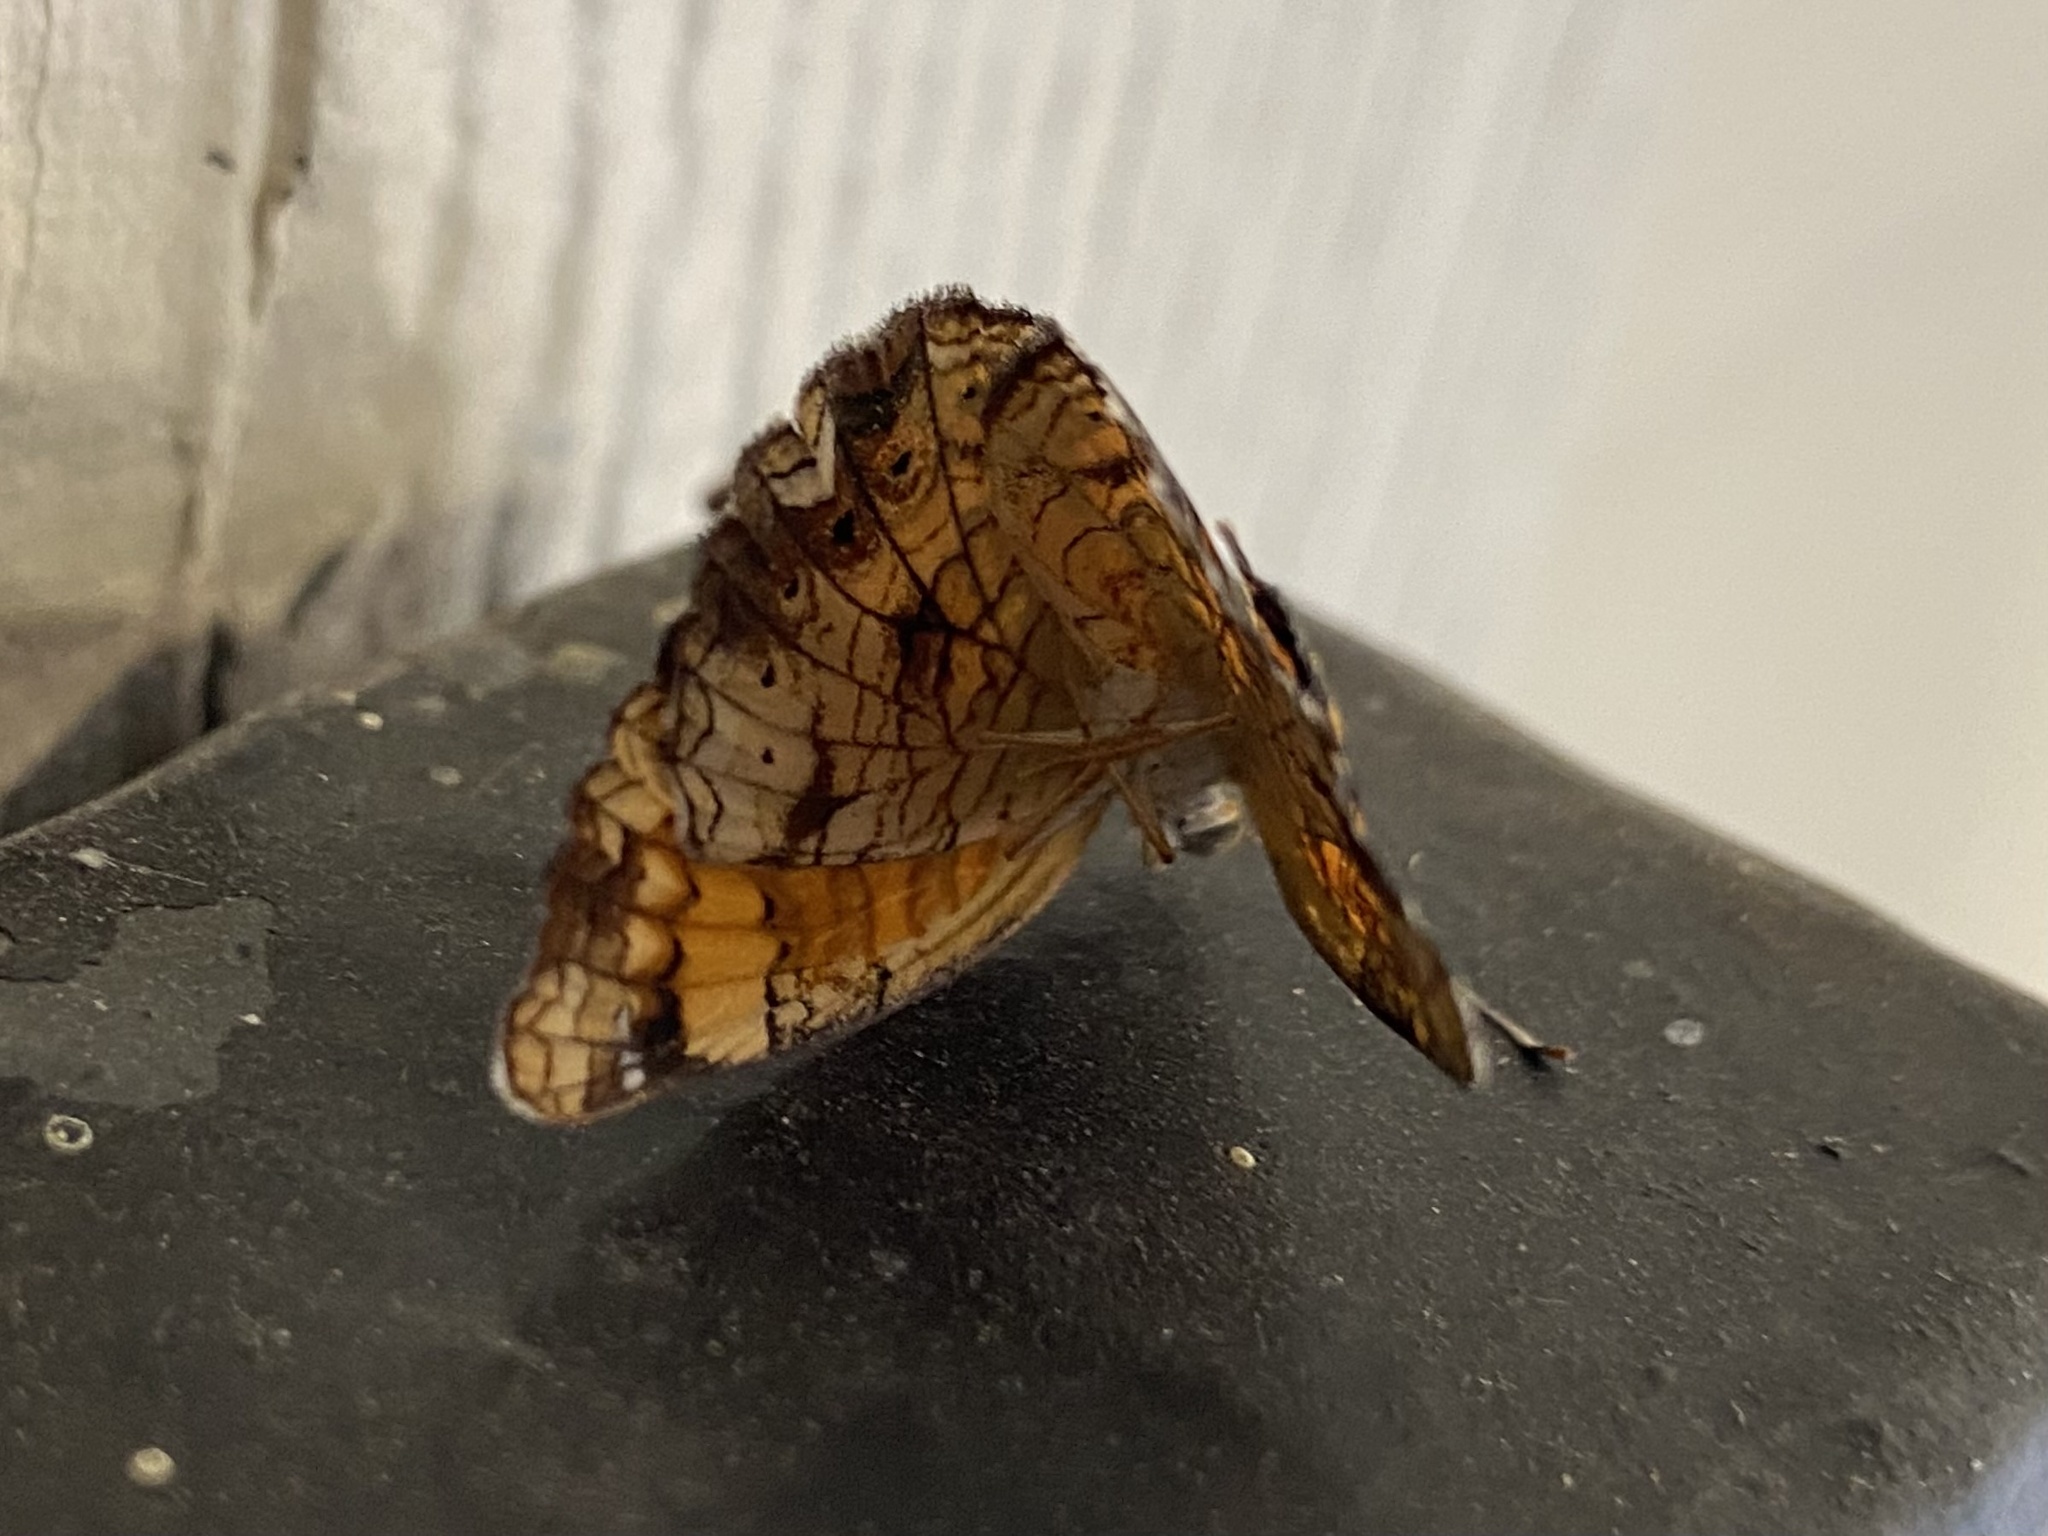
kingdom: Animalia
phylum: Arthropoda
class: Insecta
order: Lepidoptera
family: Nymphalidae
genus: Phyciodes
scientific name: Phyciodes tharos
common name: Pearl crescent
